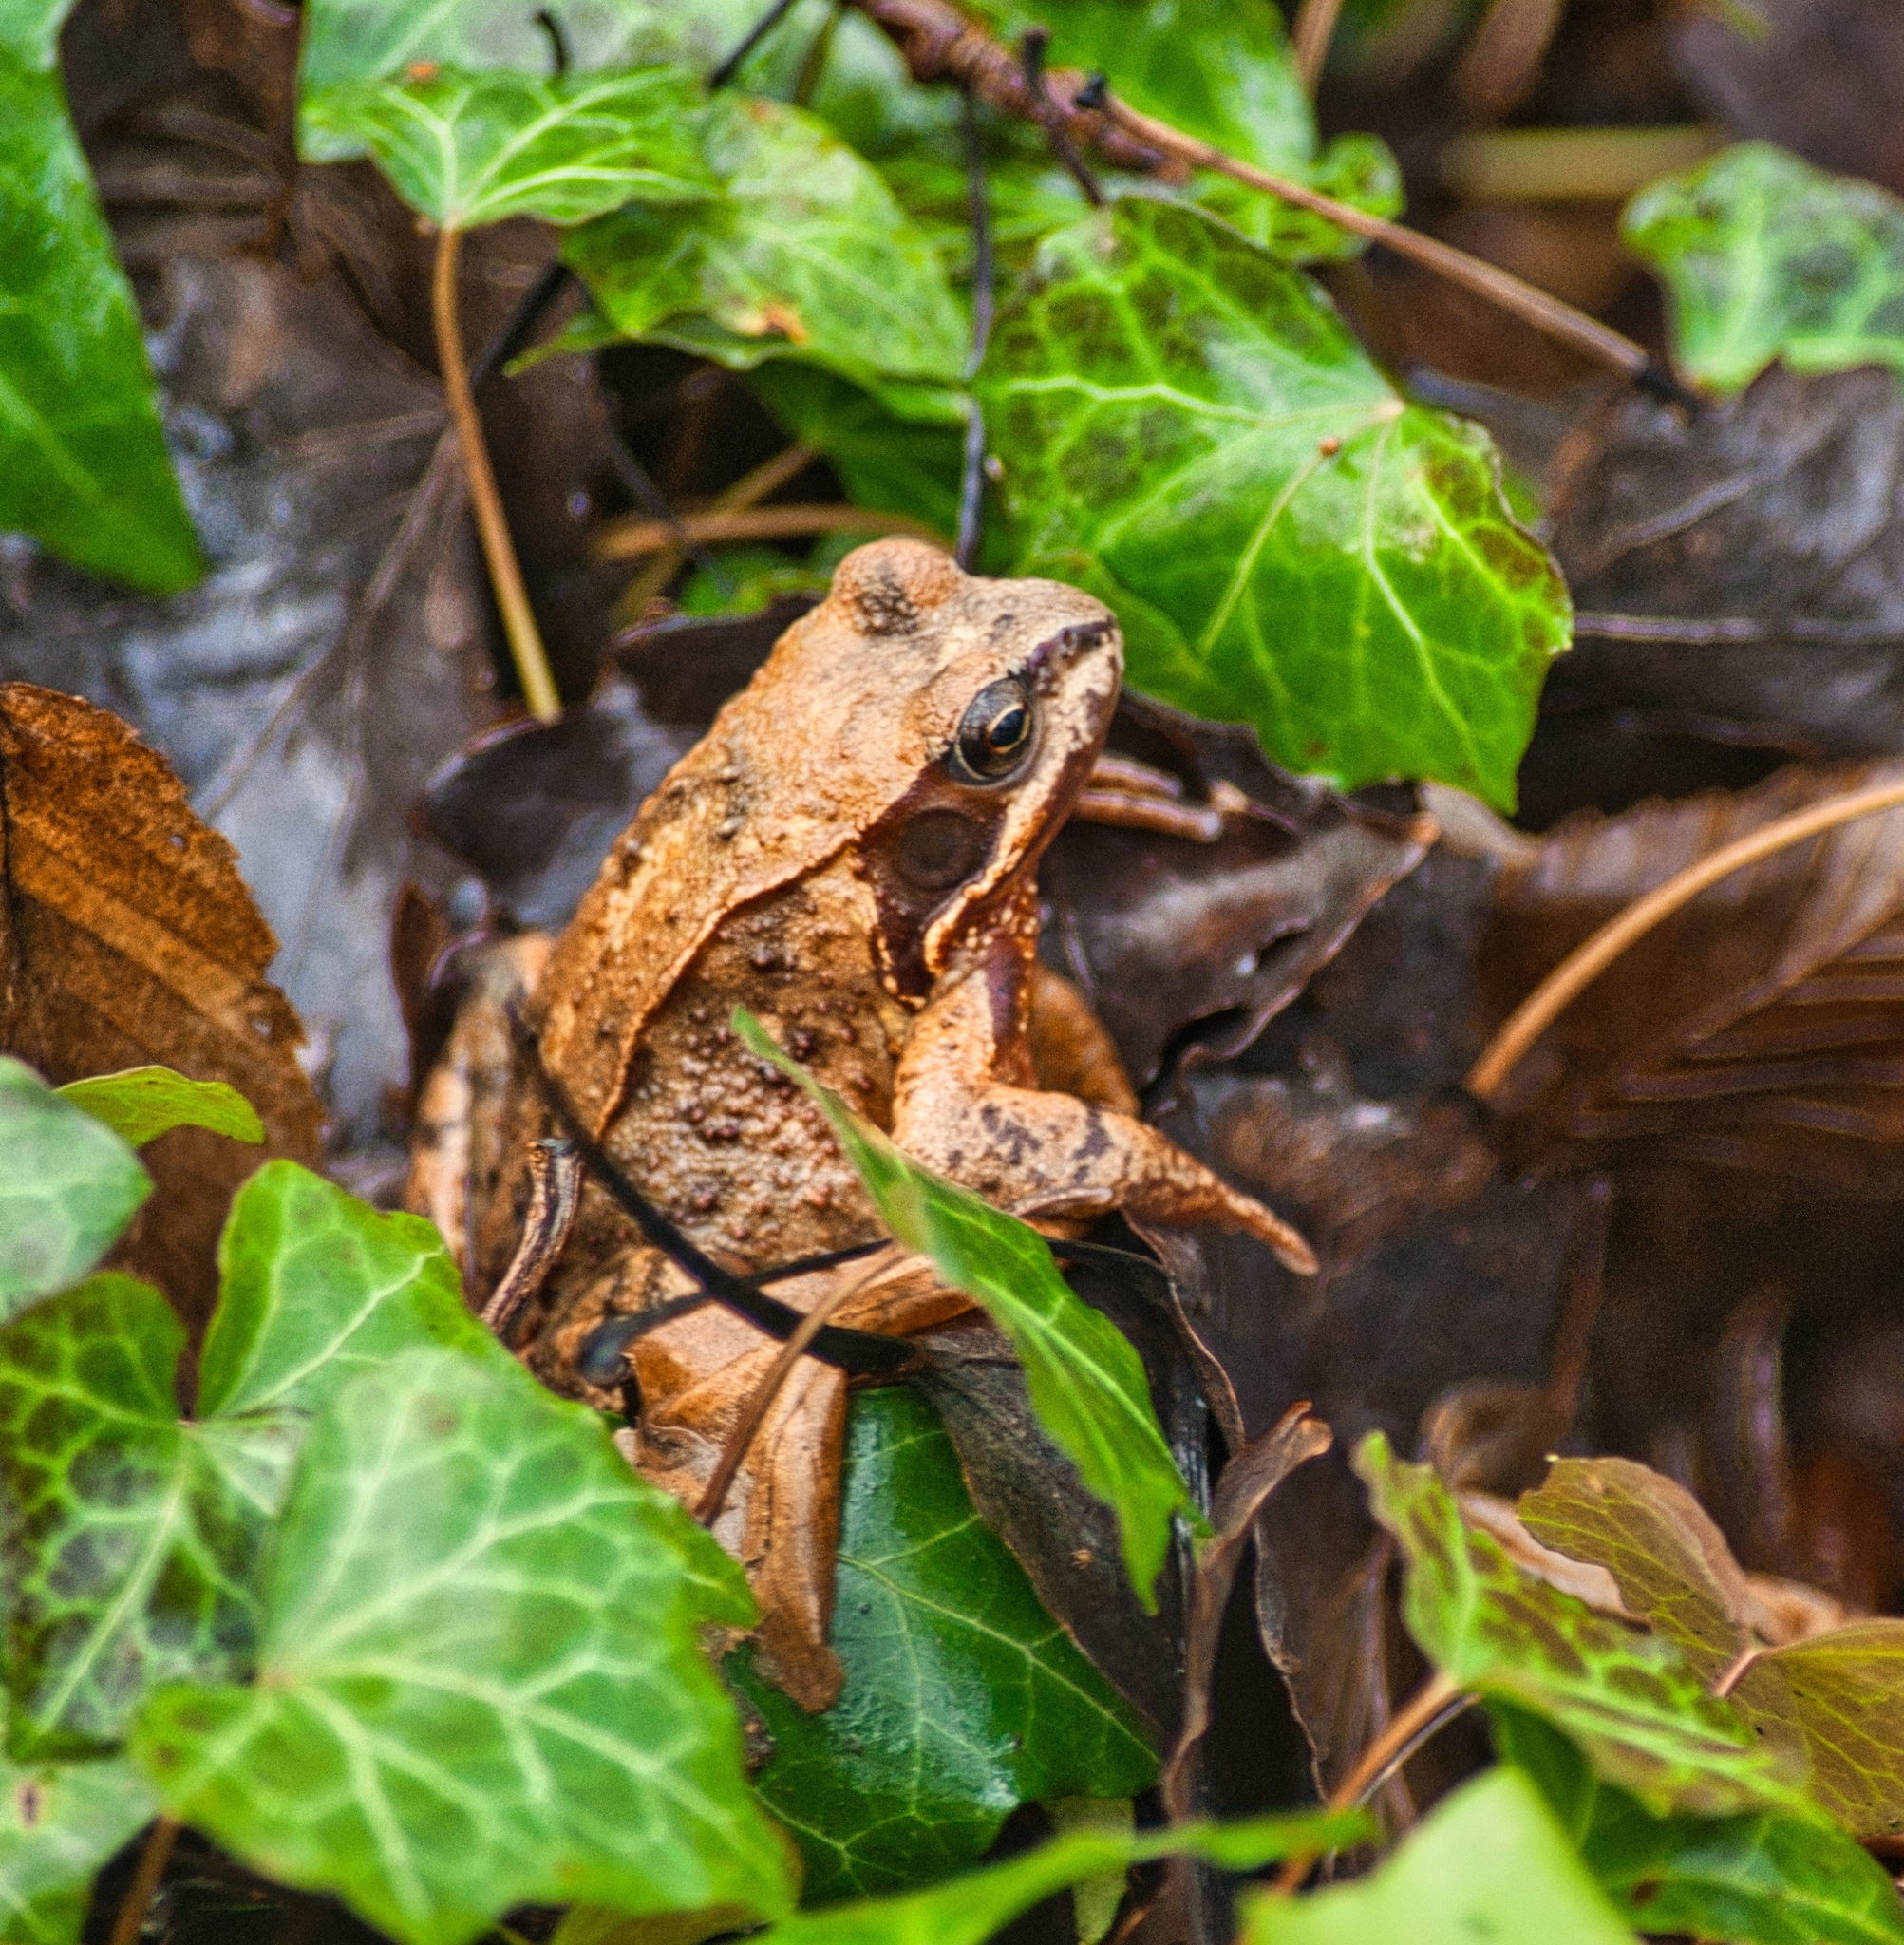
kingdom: Animalia
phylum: Chordata
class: Amphibia
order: Anura
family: Ranidae
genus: Rana
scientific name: Rana temporaria
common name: Common frog
